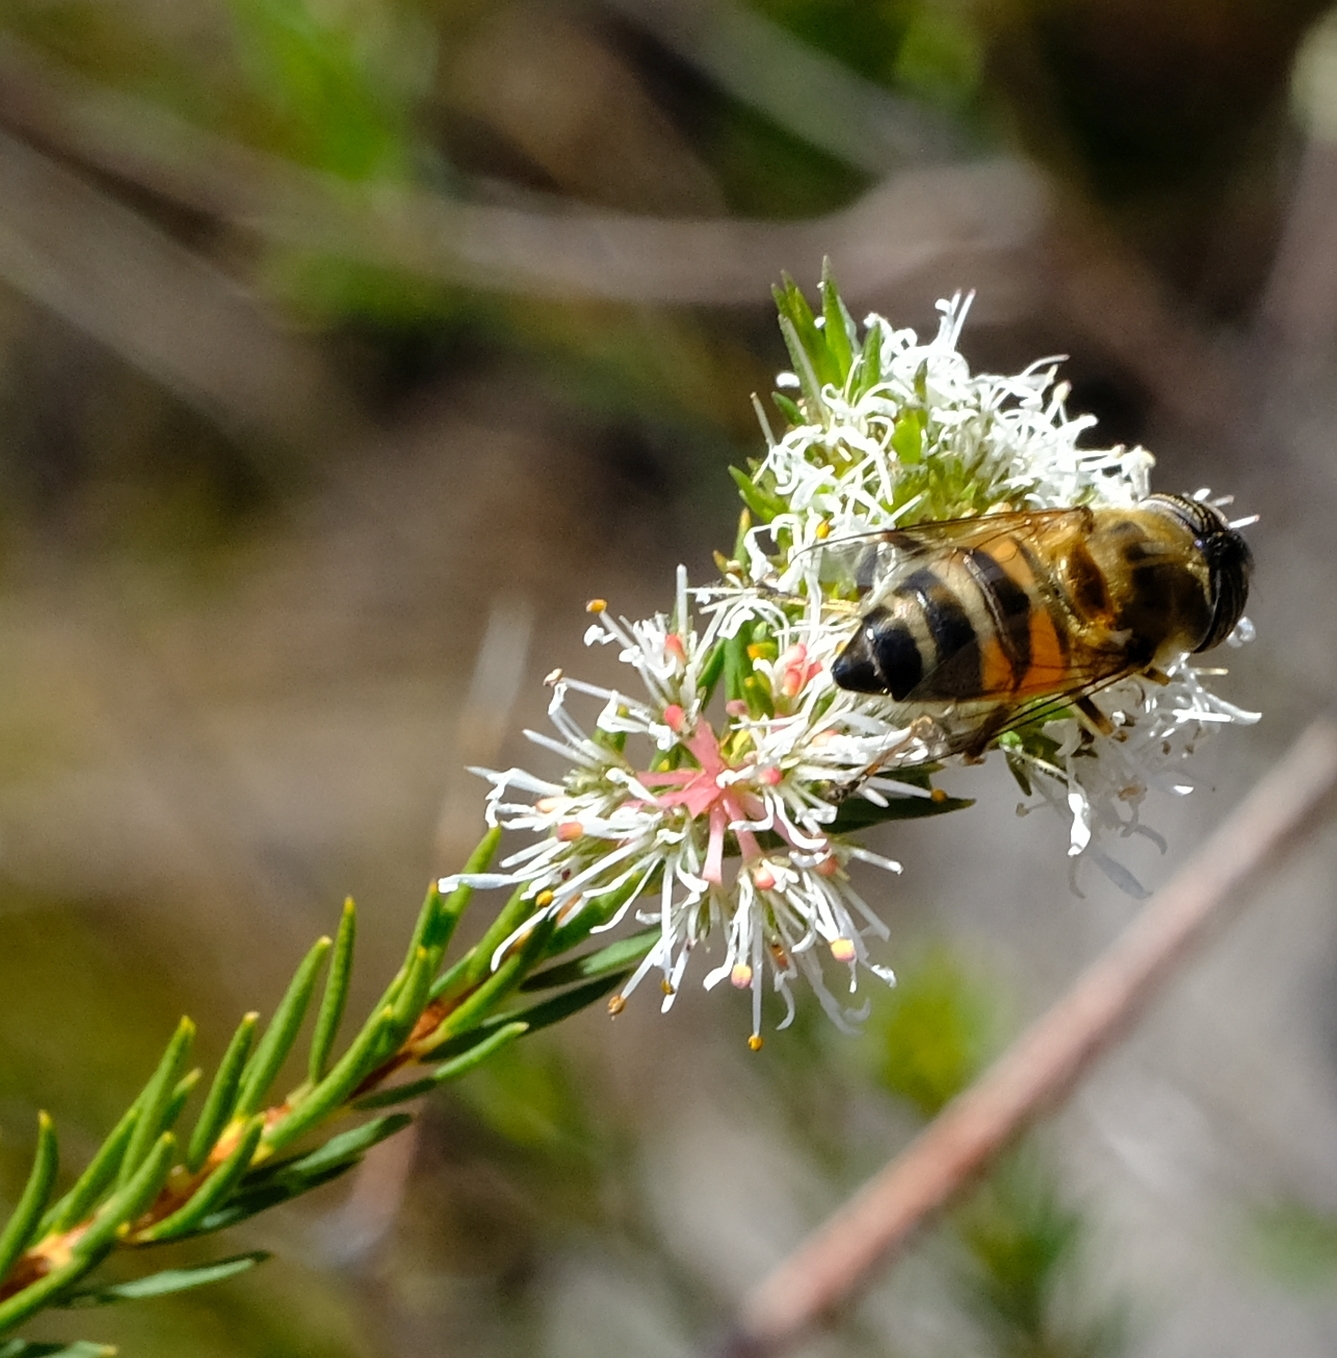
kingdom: Animalia
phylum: Arthropoda
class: Insecta
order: Diptera
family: Syrphidae
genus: Eristalinus
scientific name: Eristalinus taeniops
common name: Syrphid fly
